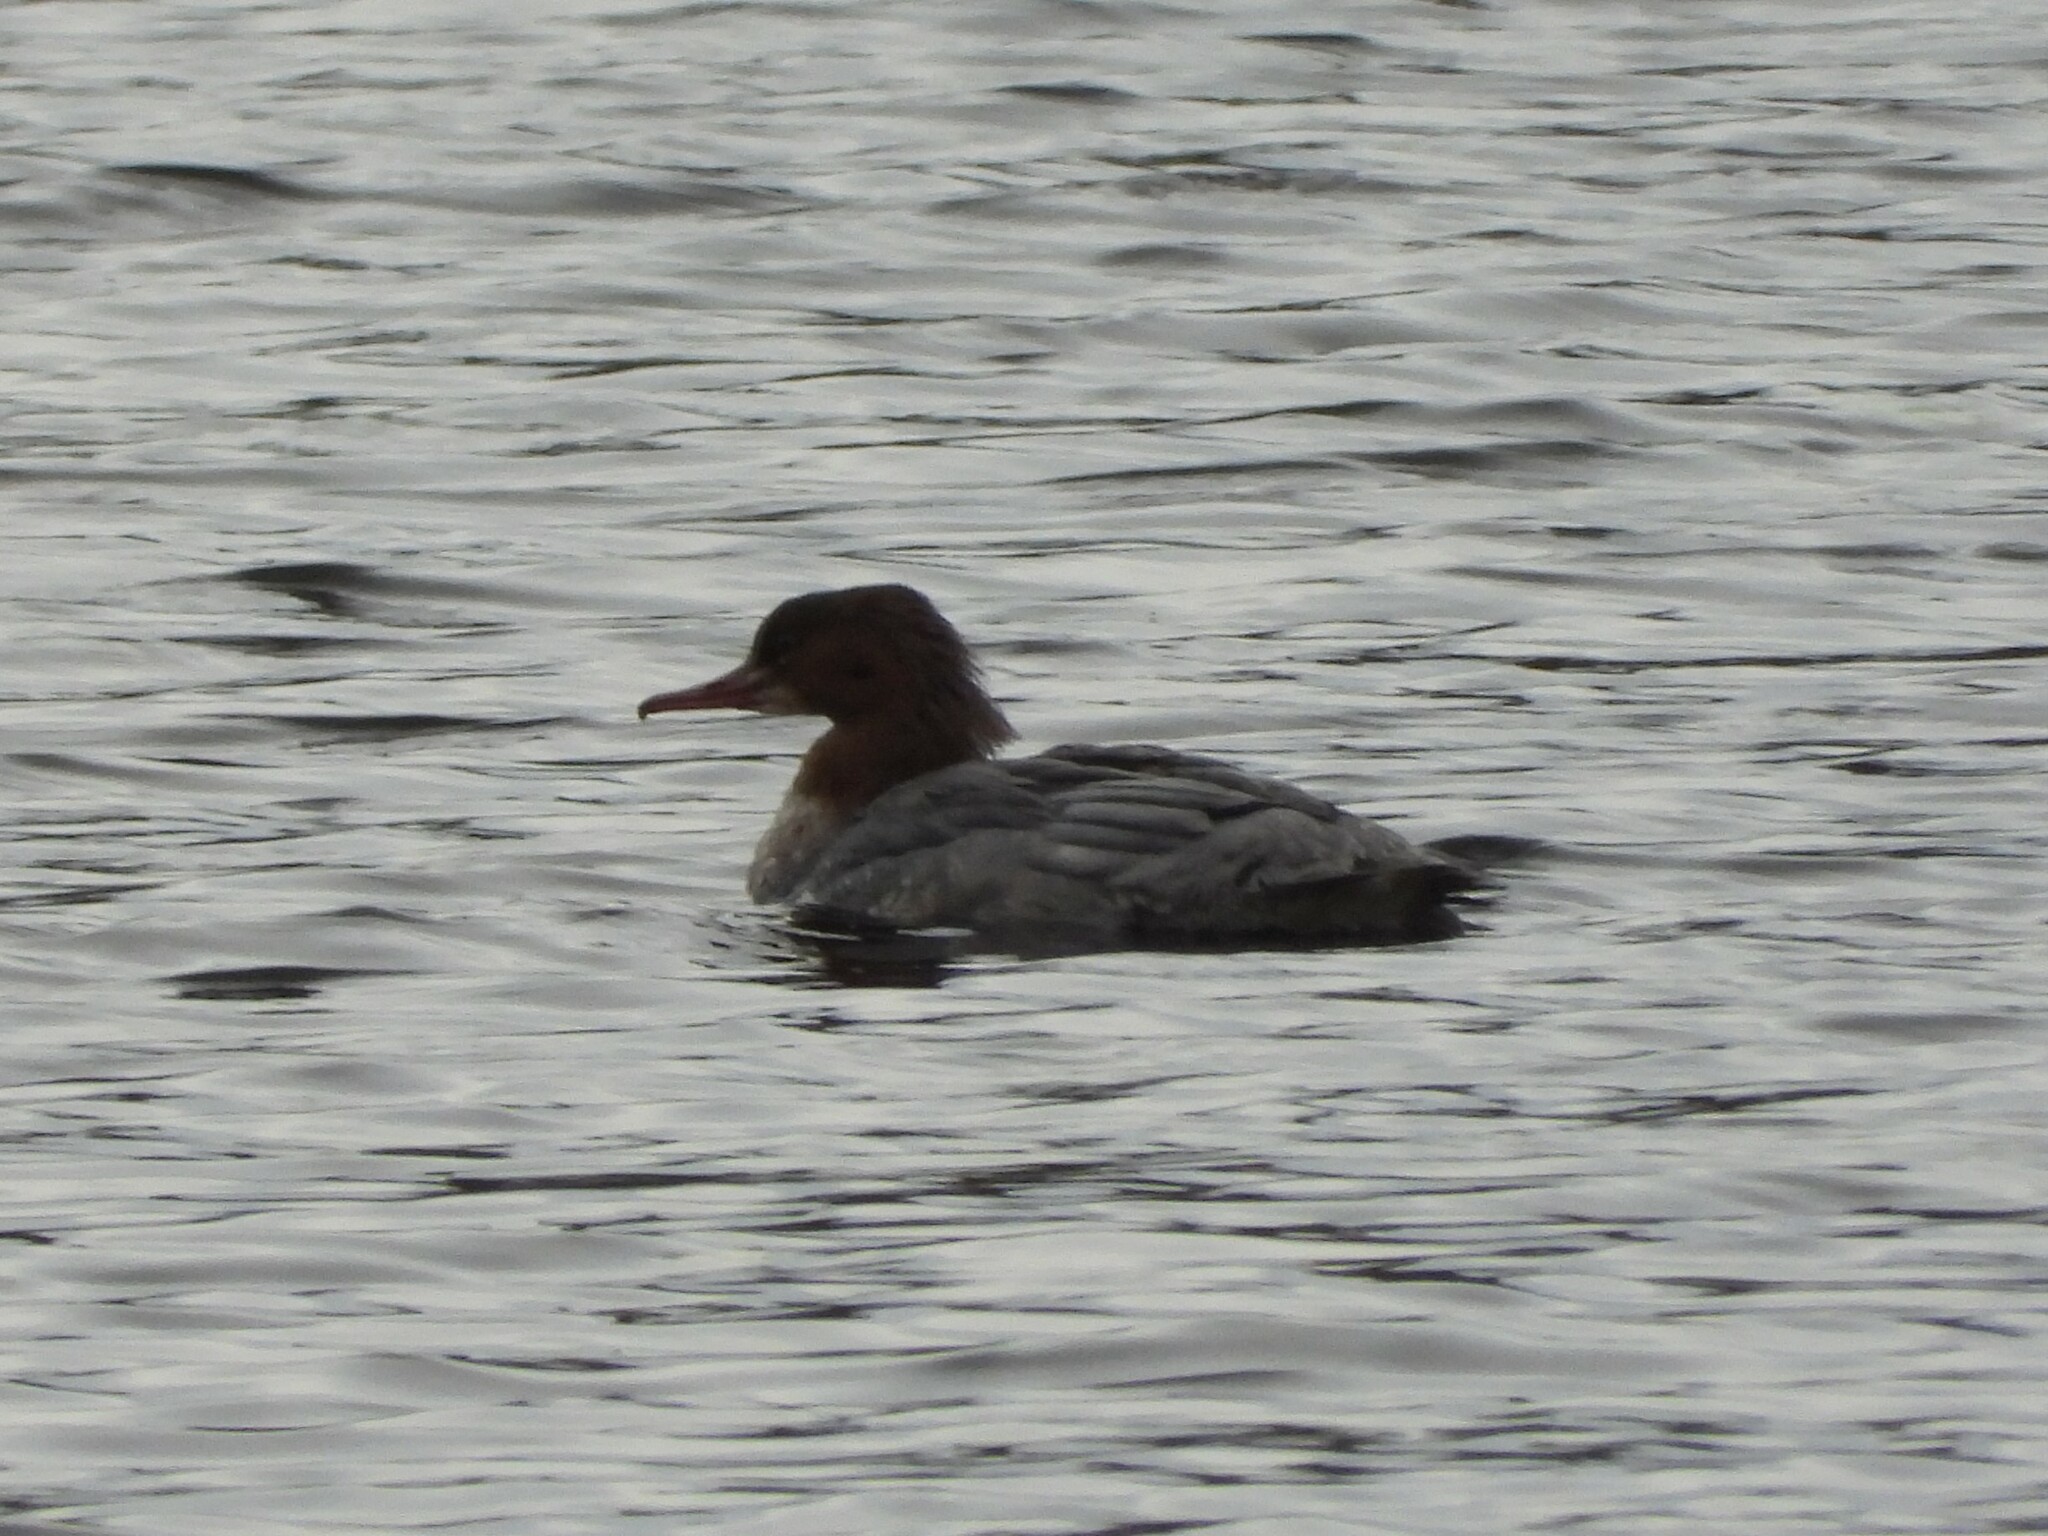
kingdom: Animalia
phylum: Chordata
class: Aves
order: Anseriformes
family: Anatidae
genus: Mergus
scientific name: Mergus merganser
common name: Common merganser
